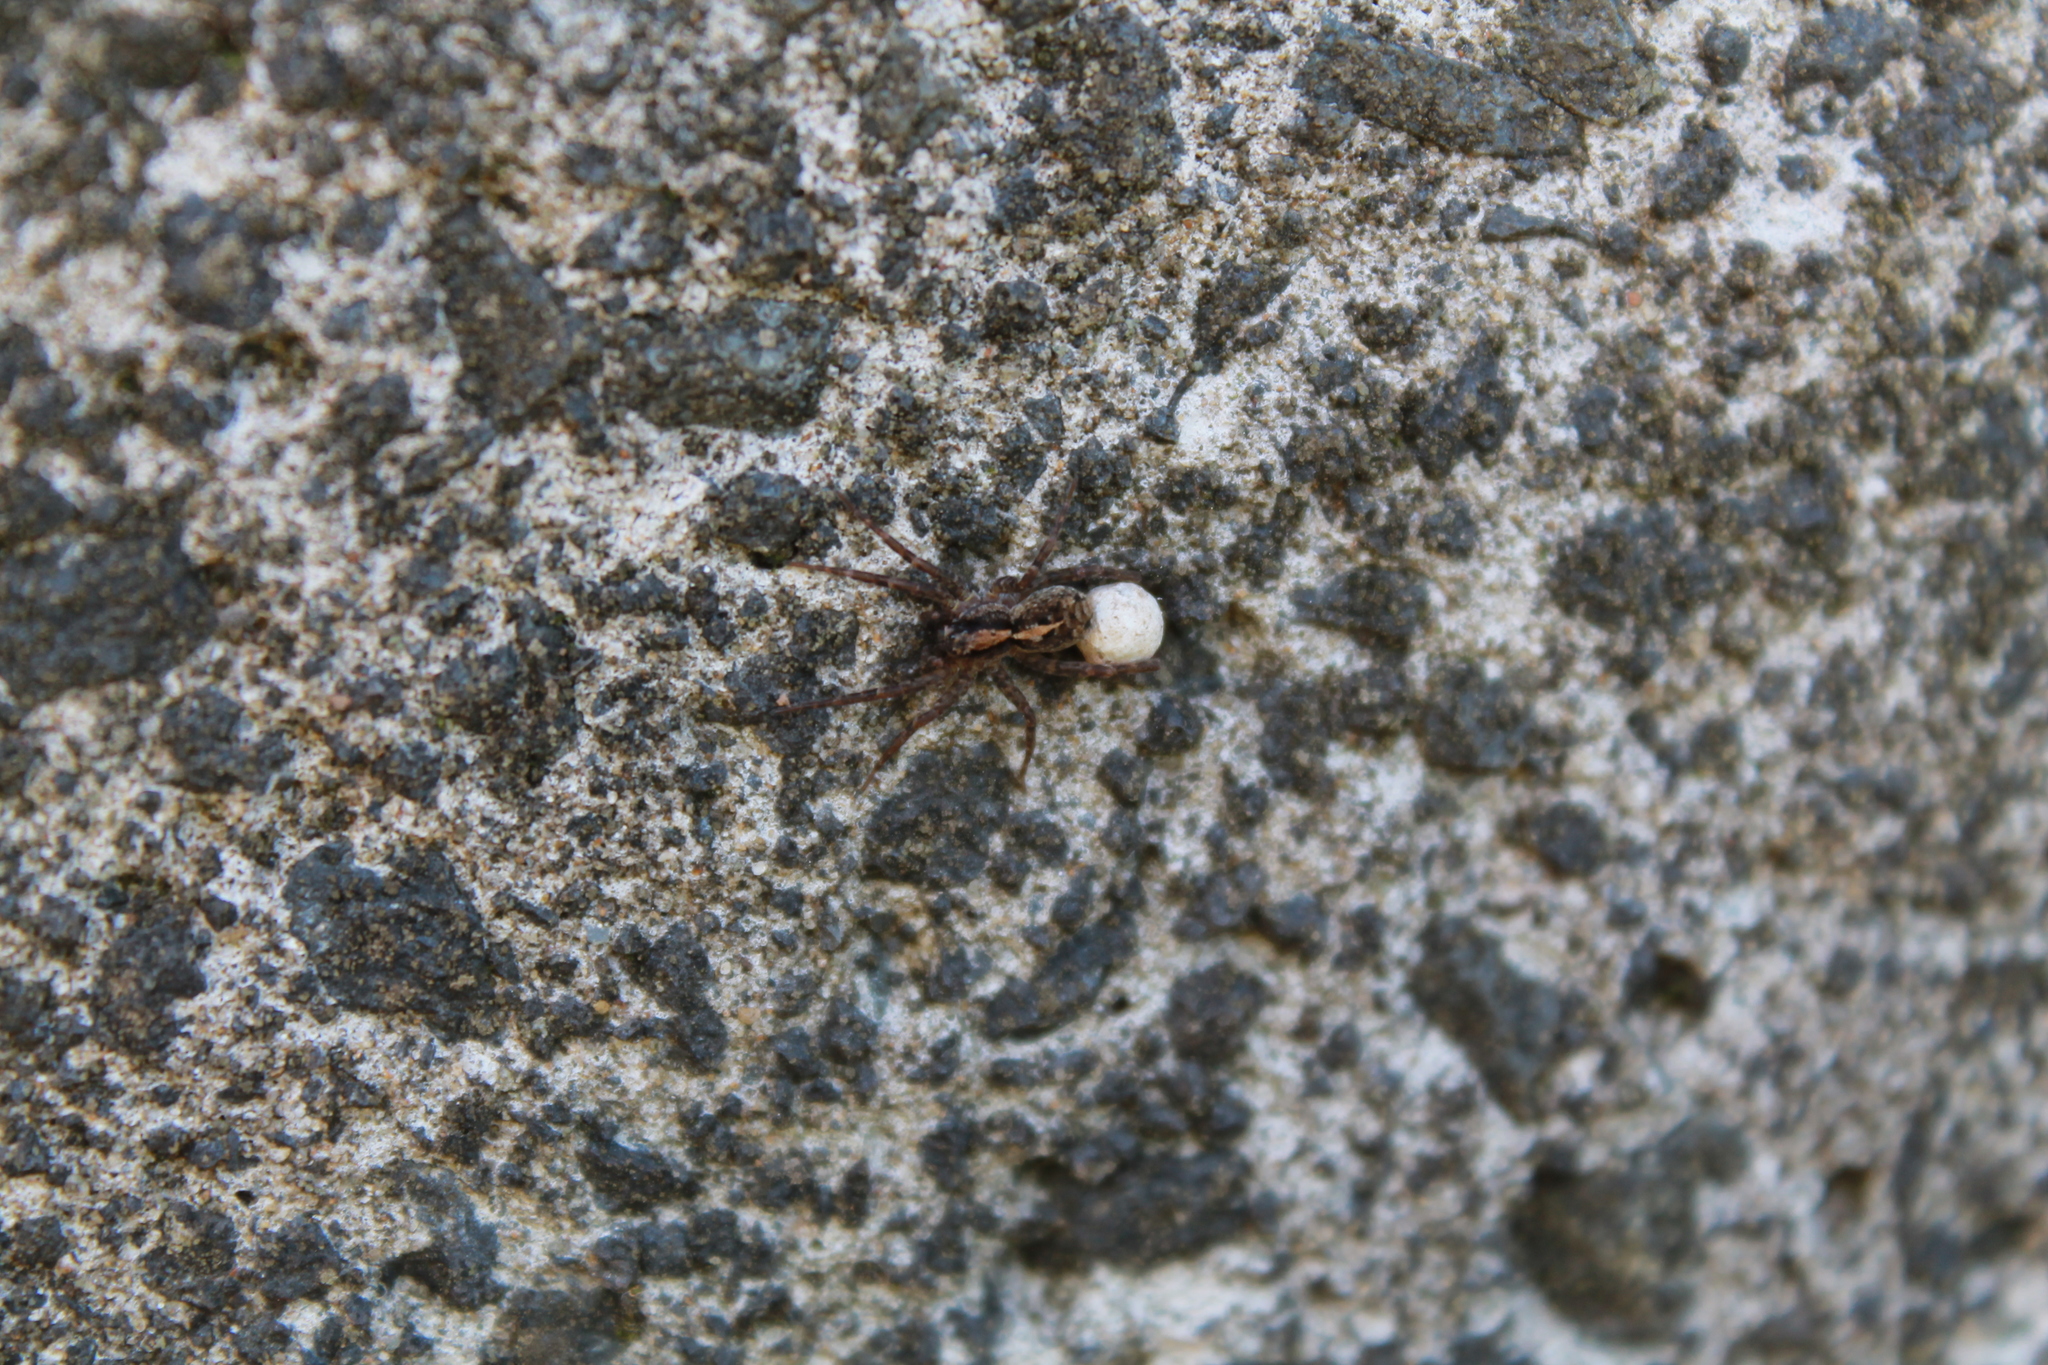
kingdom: Animalia
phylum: Arthropoda
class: Arachnida
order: Araneae
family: Lycosidae
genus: Anoteropsis
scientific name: Anoteropsis hilaris
